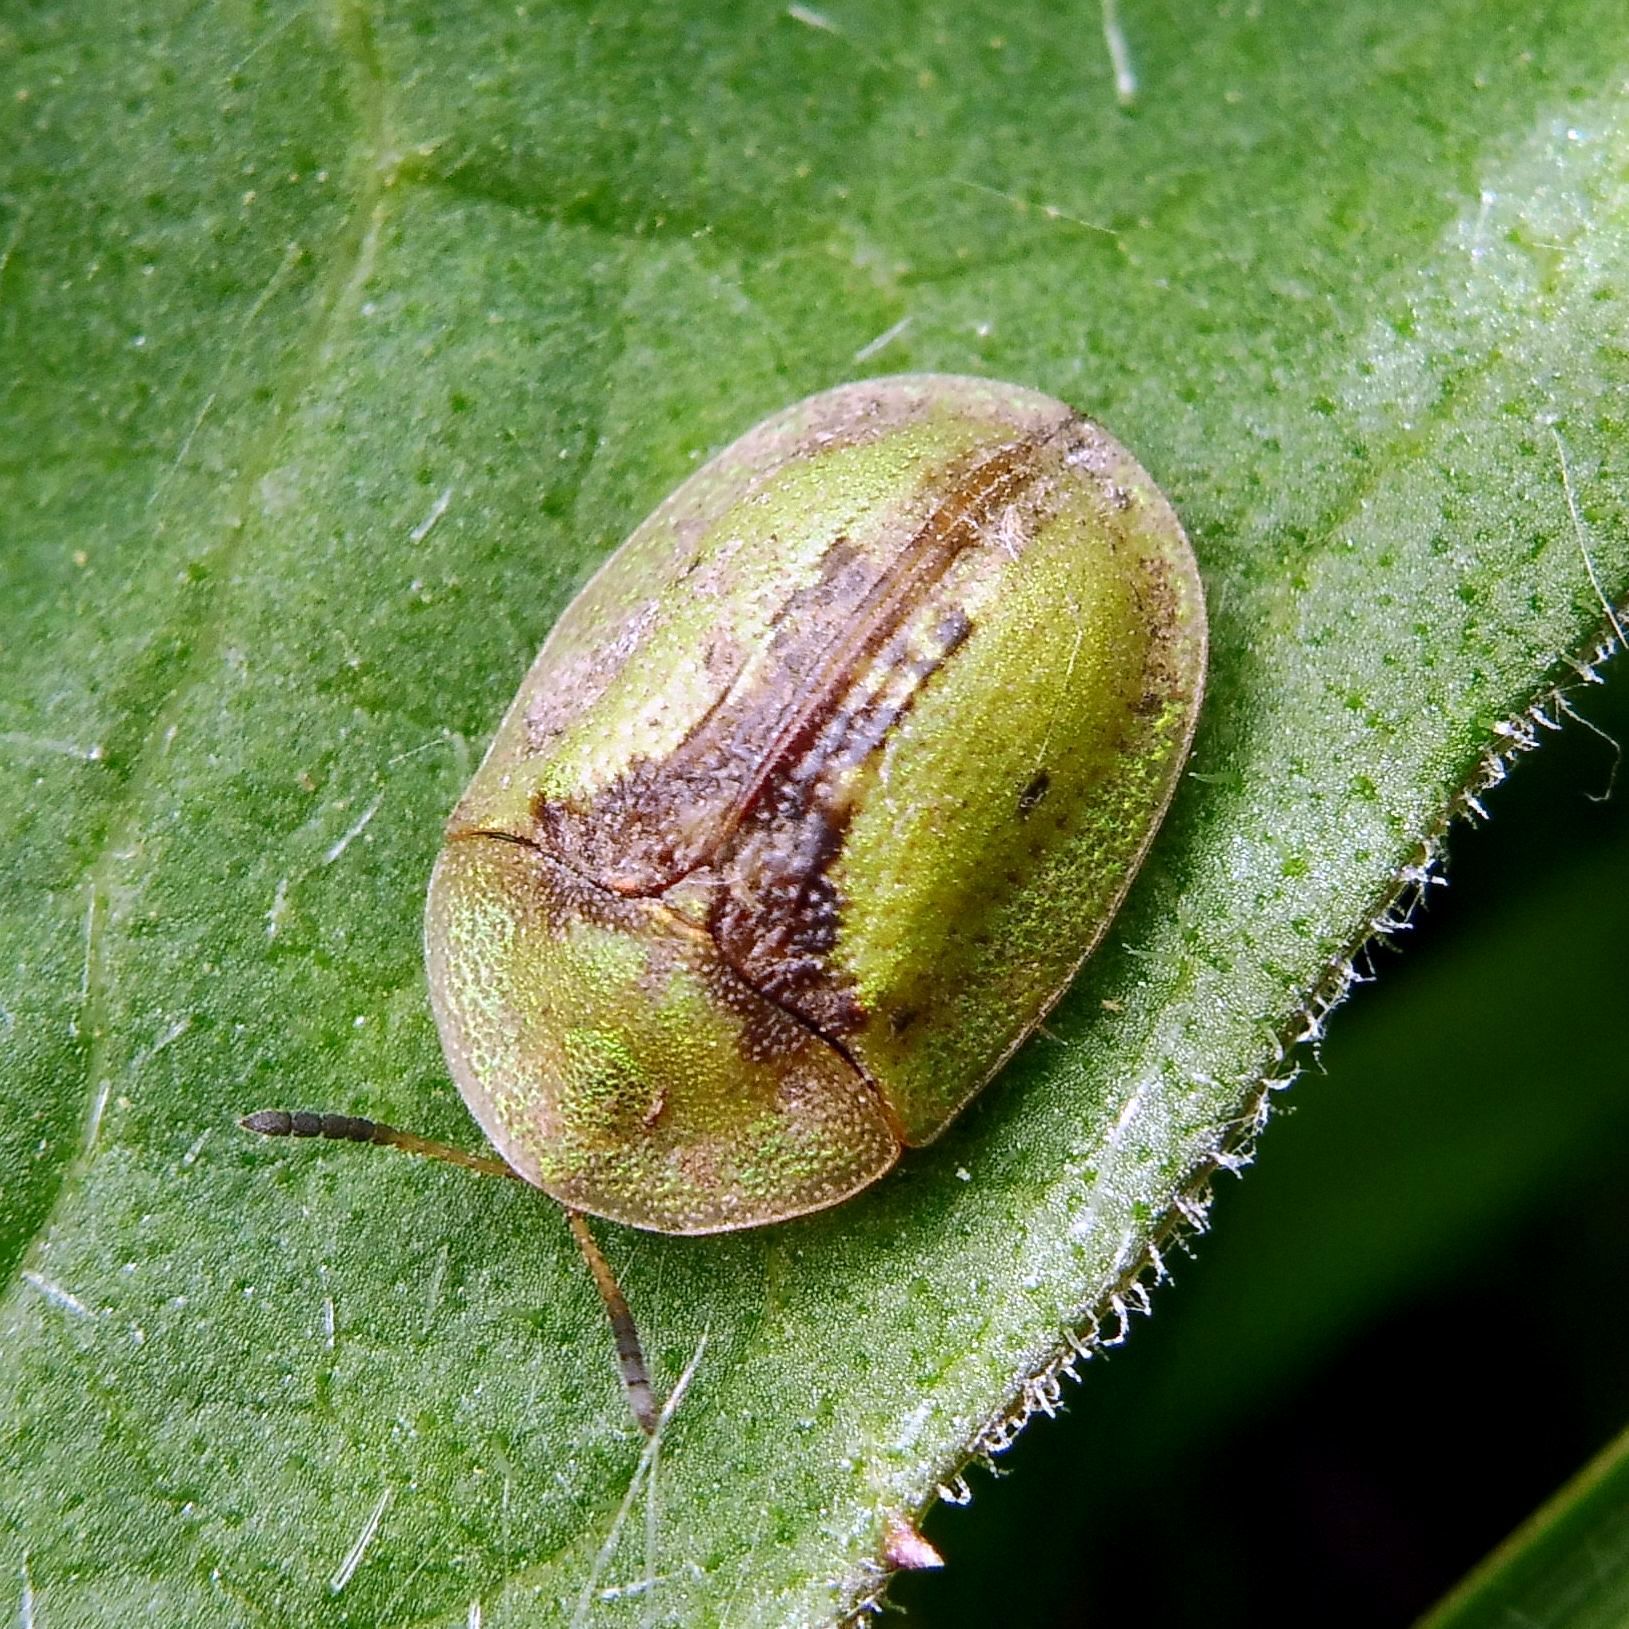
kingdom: Animalia
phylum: Arthropoda
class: Insecta
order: Coleoptera
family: Chrysomelidae
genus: Cassida
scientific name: Cassida vibex
